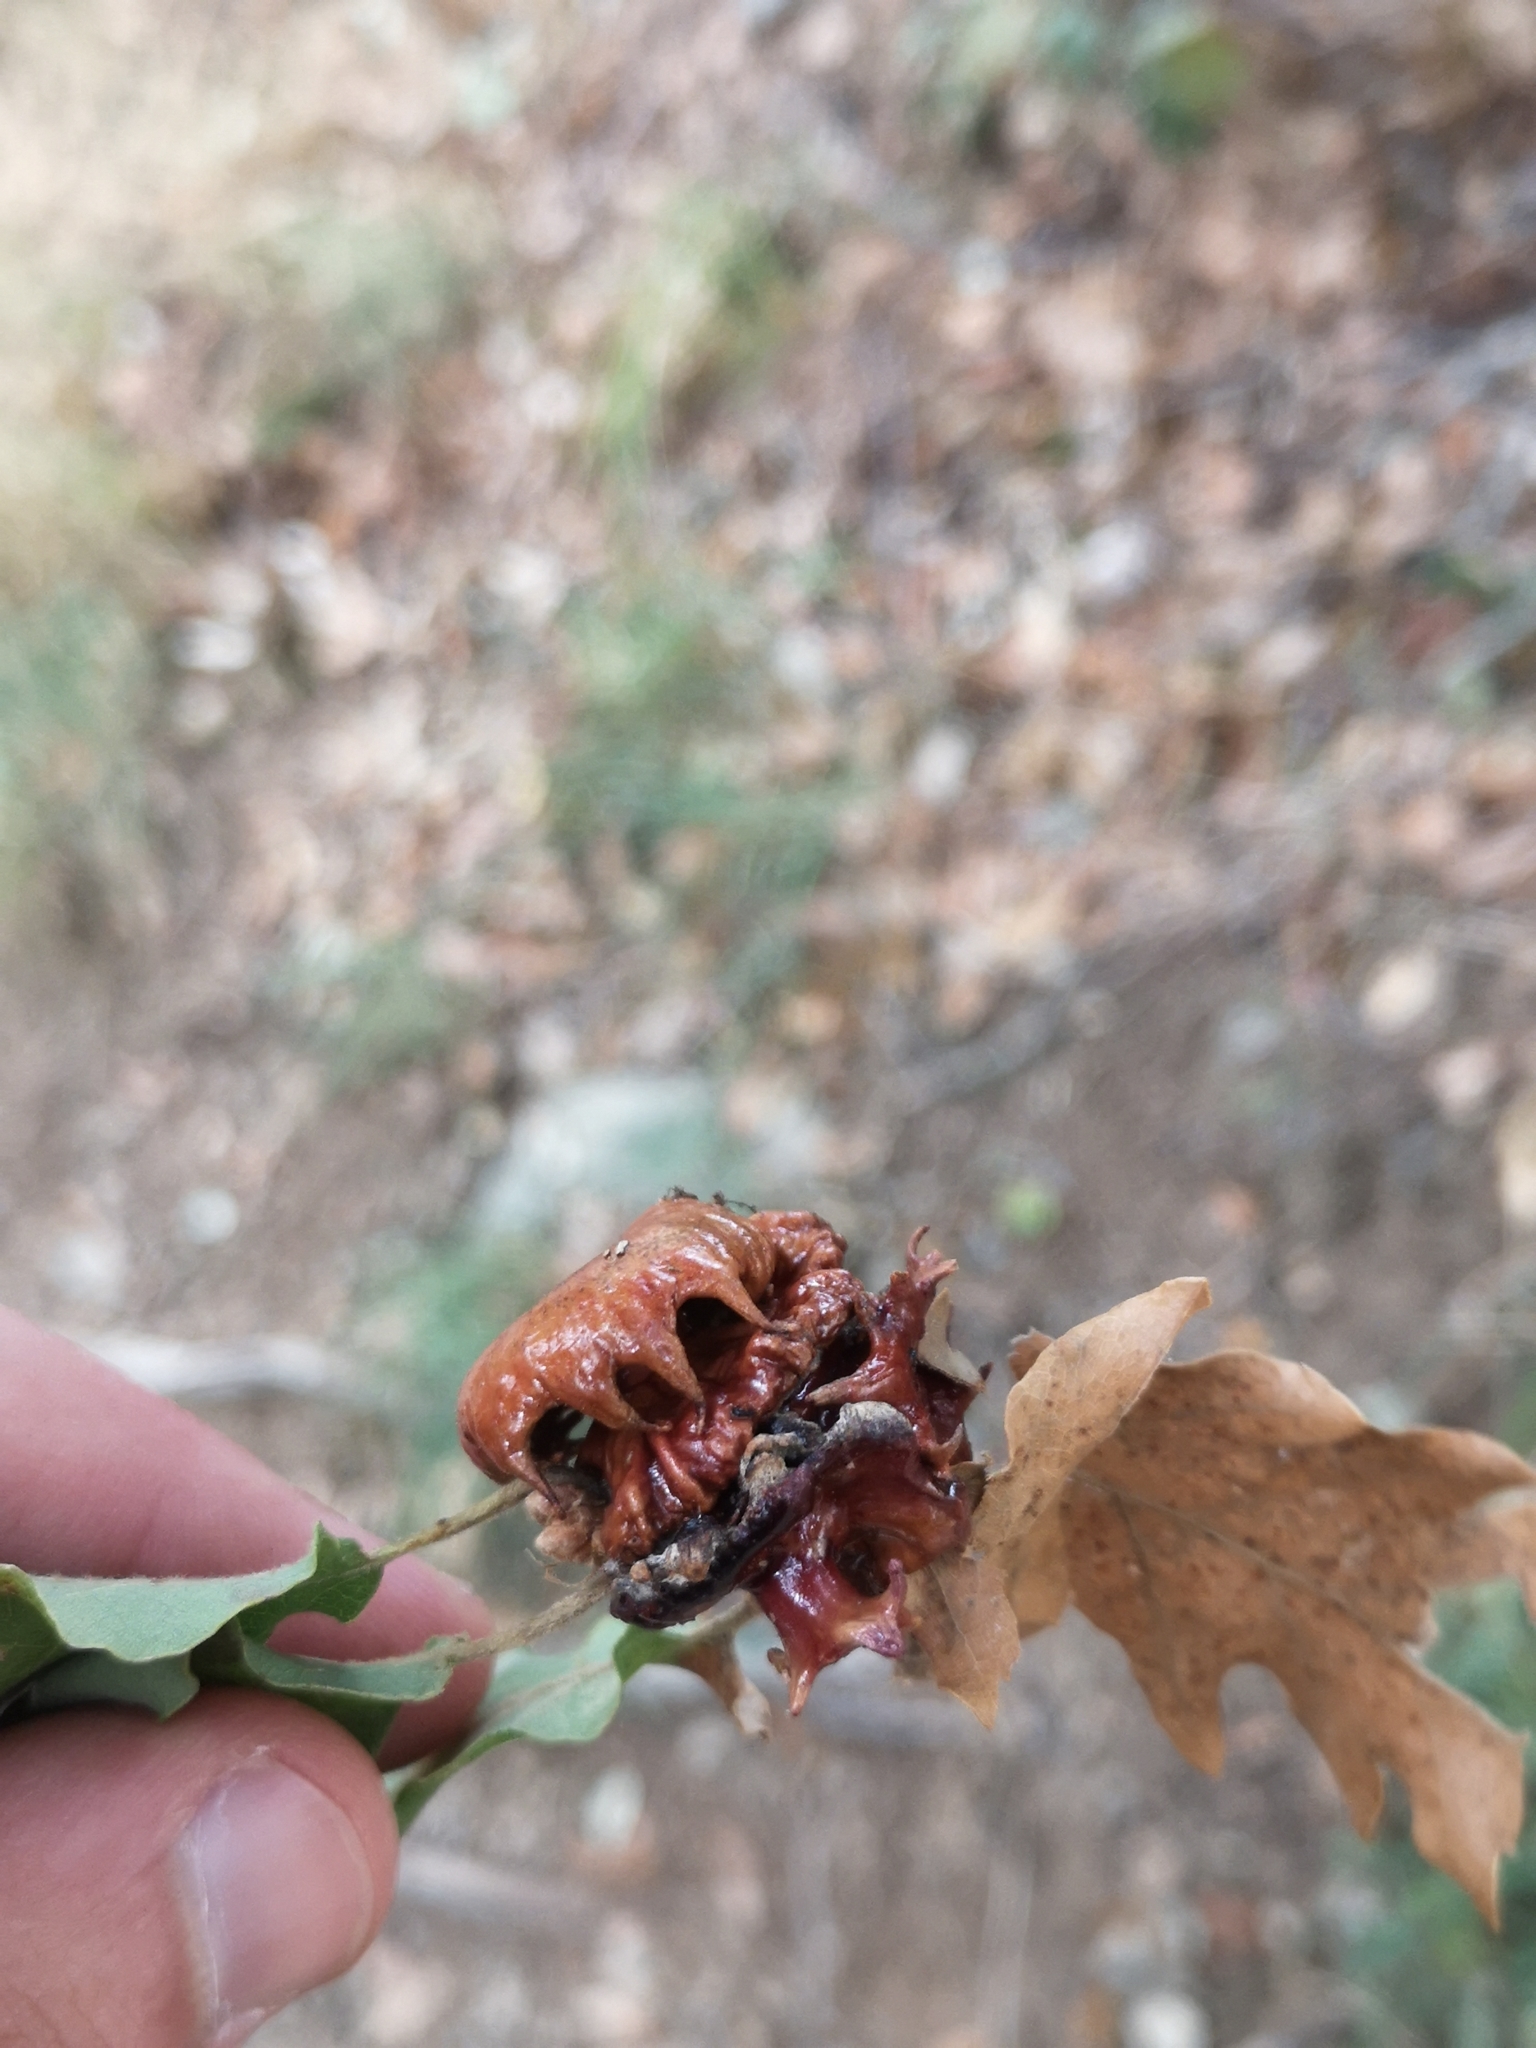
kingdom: Animalia
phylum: Arthropoda
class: Insecta
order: Hymenoptera
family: Cynipidae
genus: Andricus
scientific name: Andricus dentimitratus
